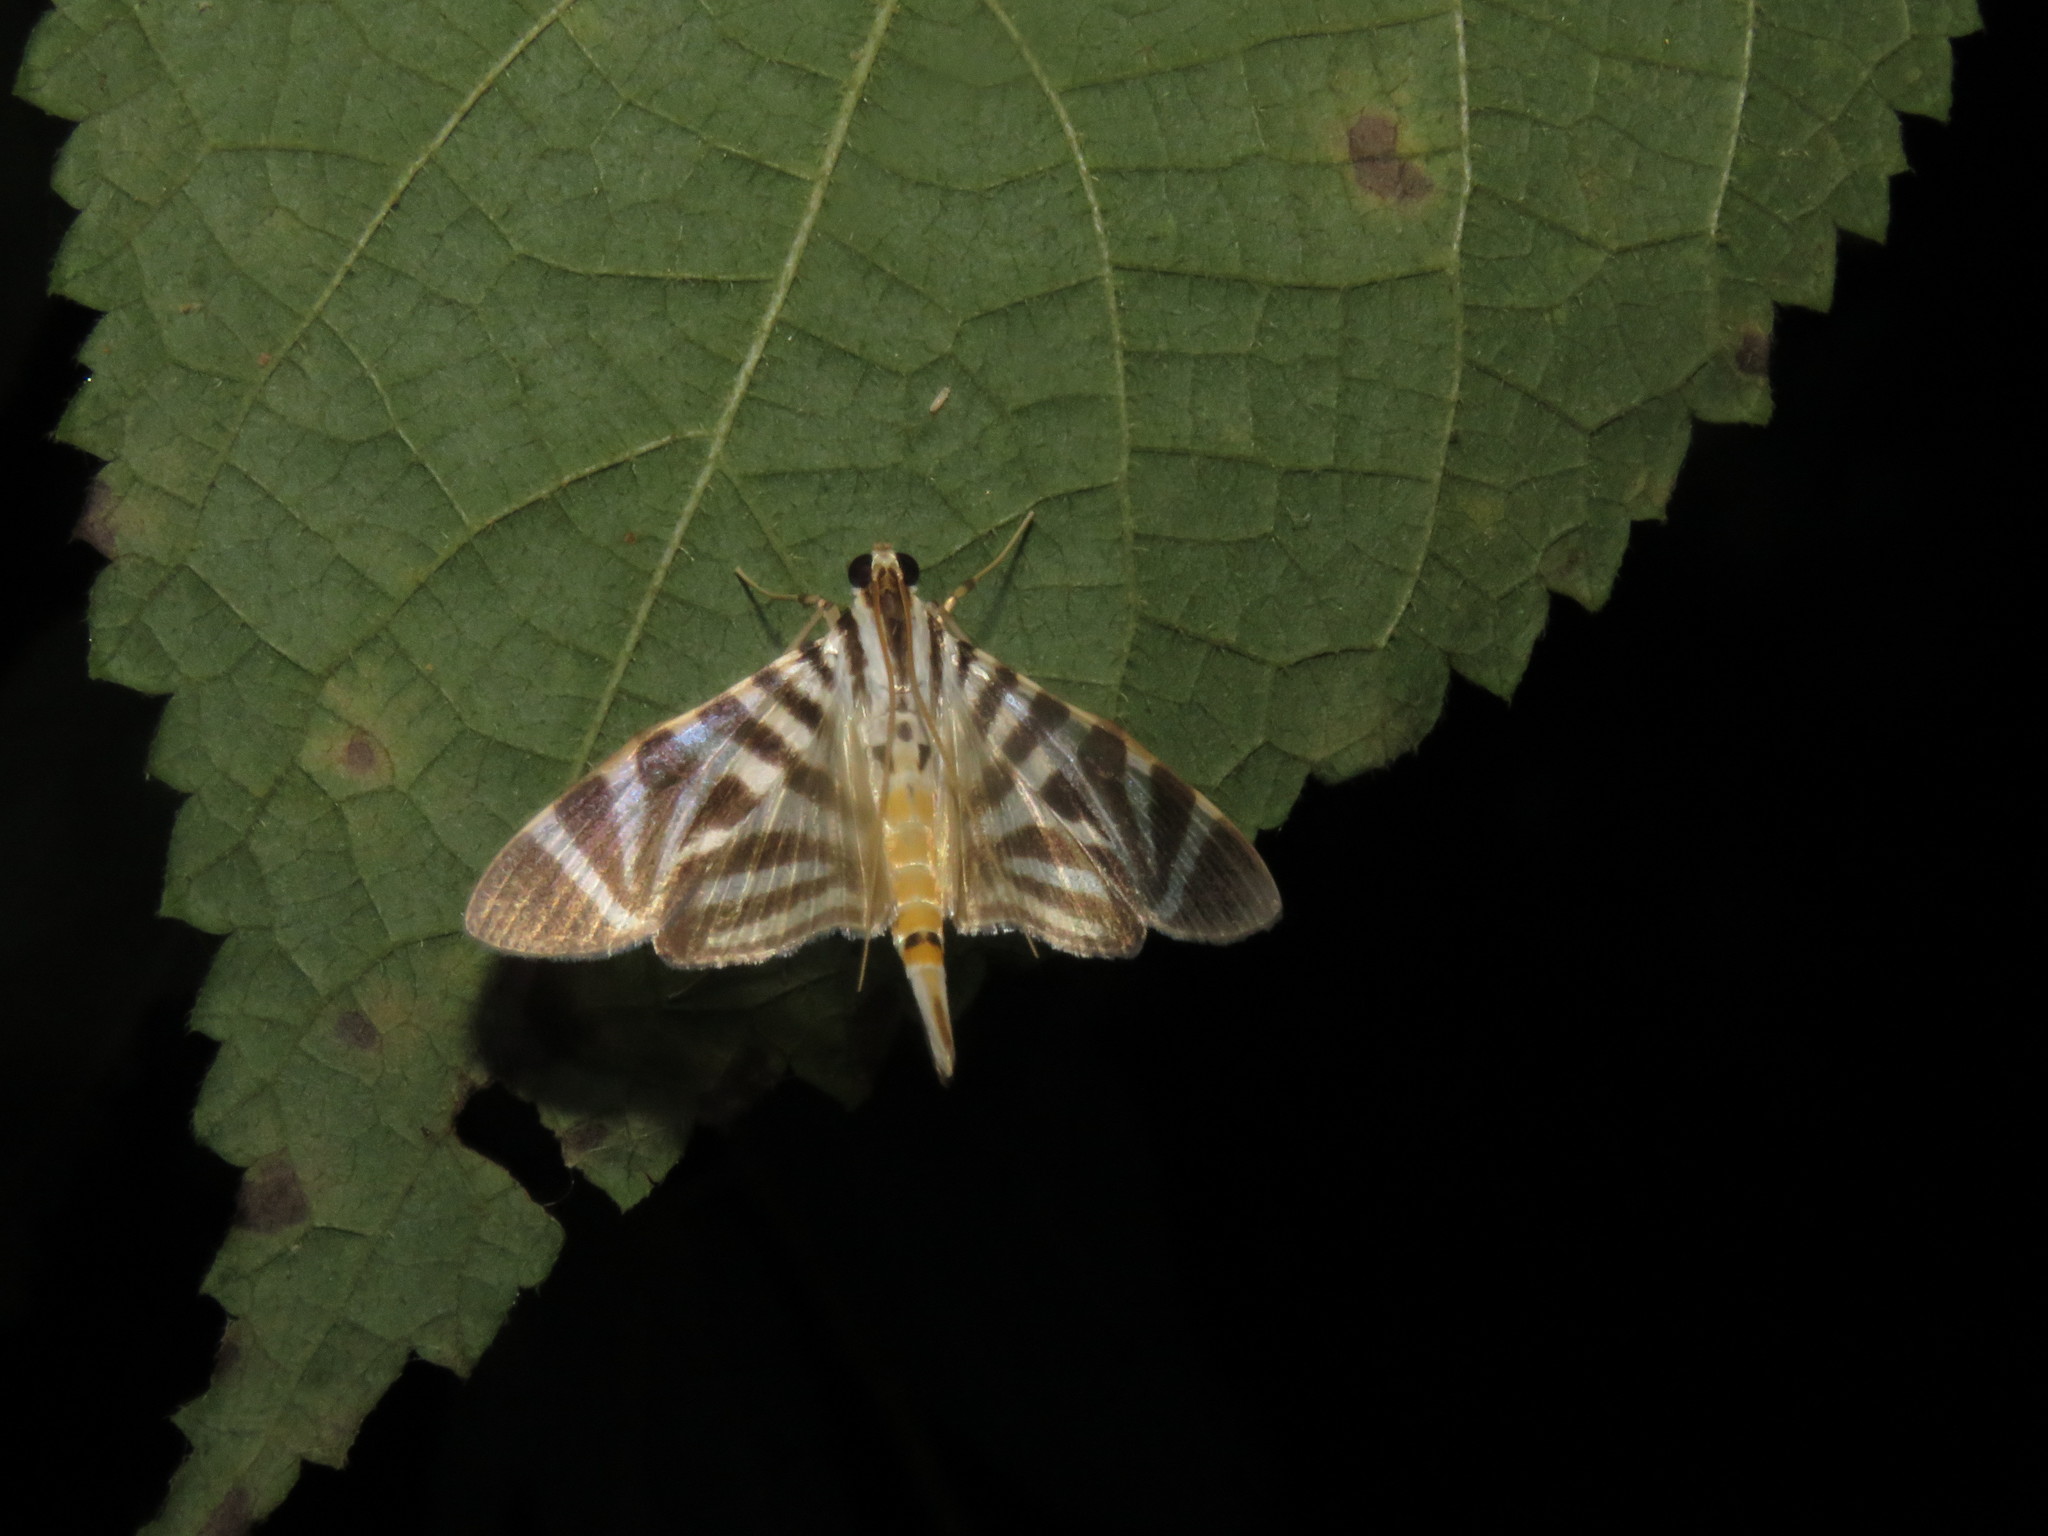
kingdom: Animalia
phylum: Arthropoda
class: Insecta
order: Lepidoptera
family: Crambidae
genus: Zebronia
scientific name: Zebronia Spilomela perspicata
